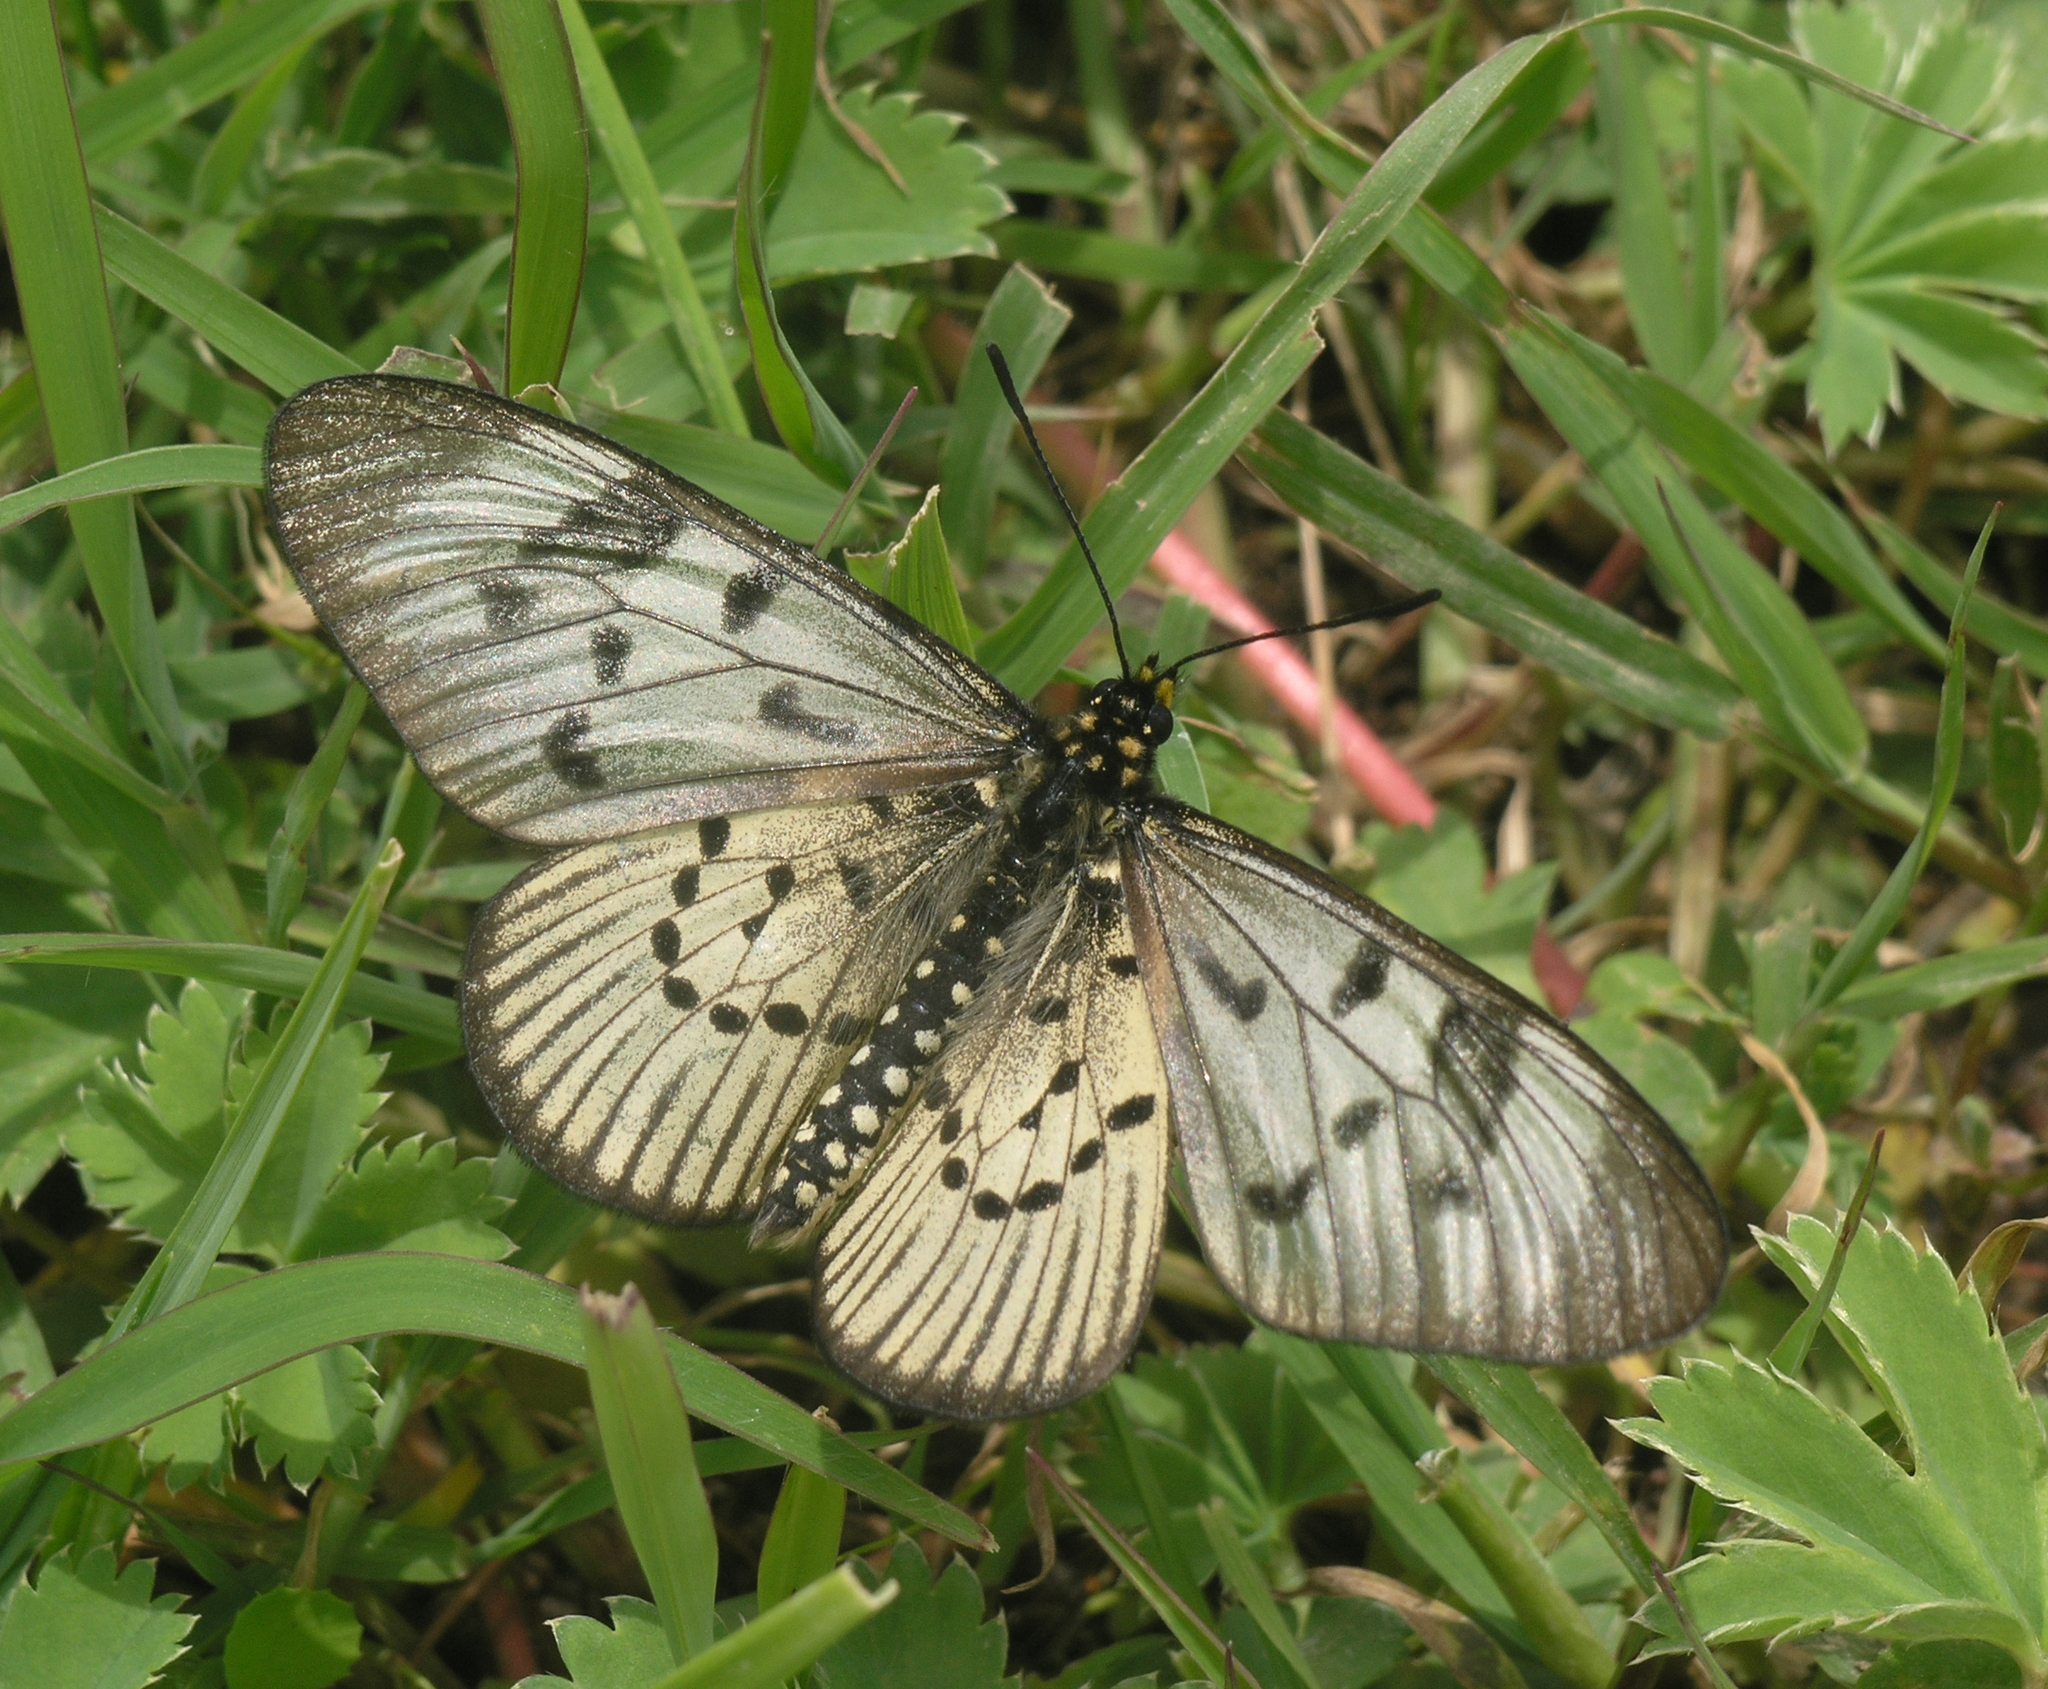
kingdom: Animalia
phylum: Arthropoda
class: Insecta
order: Lepidoptera
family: Nymphalidae
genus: Acraea
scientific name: Acraea
